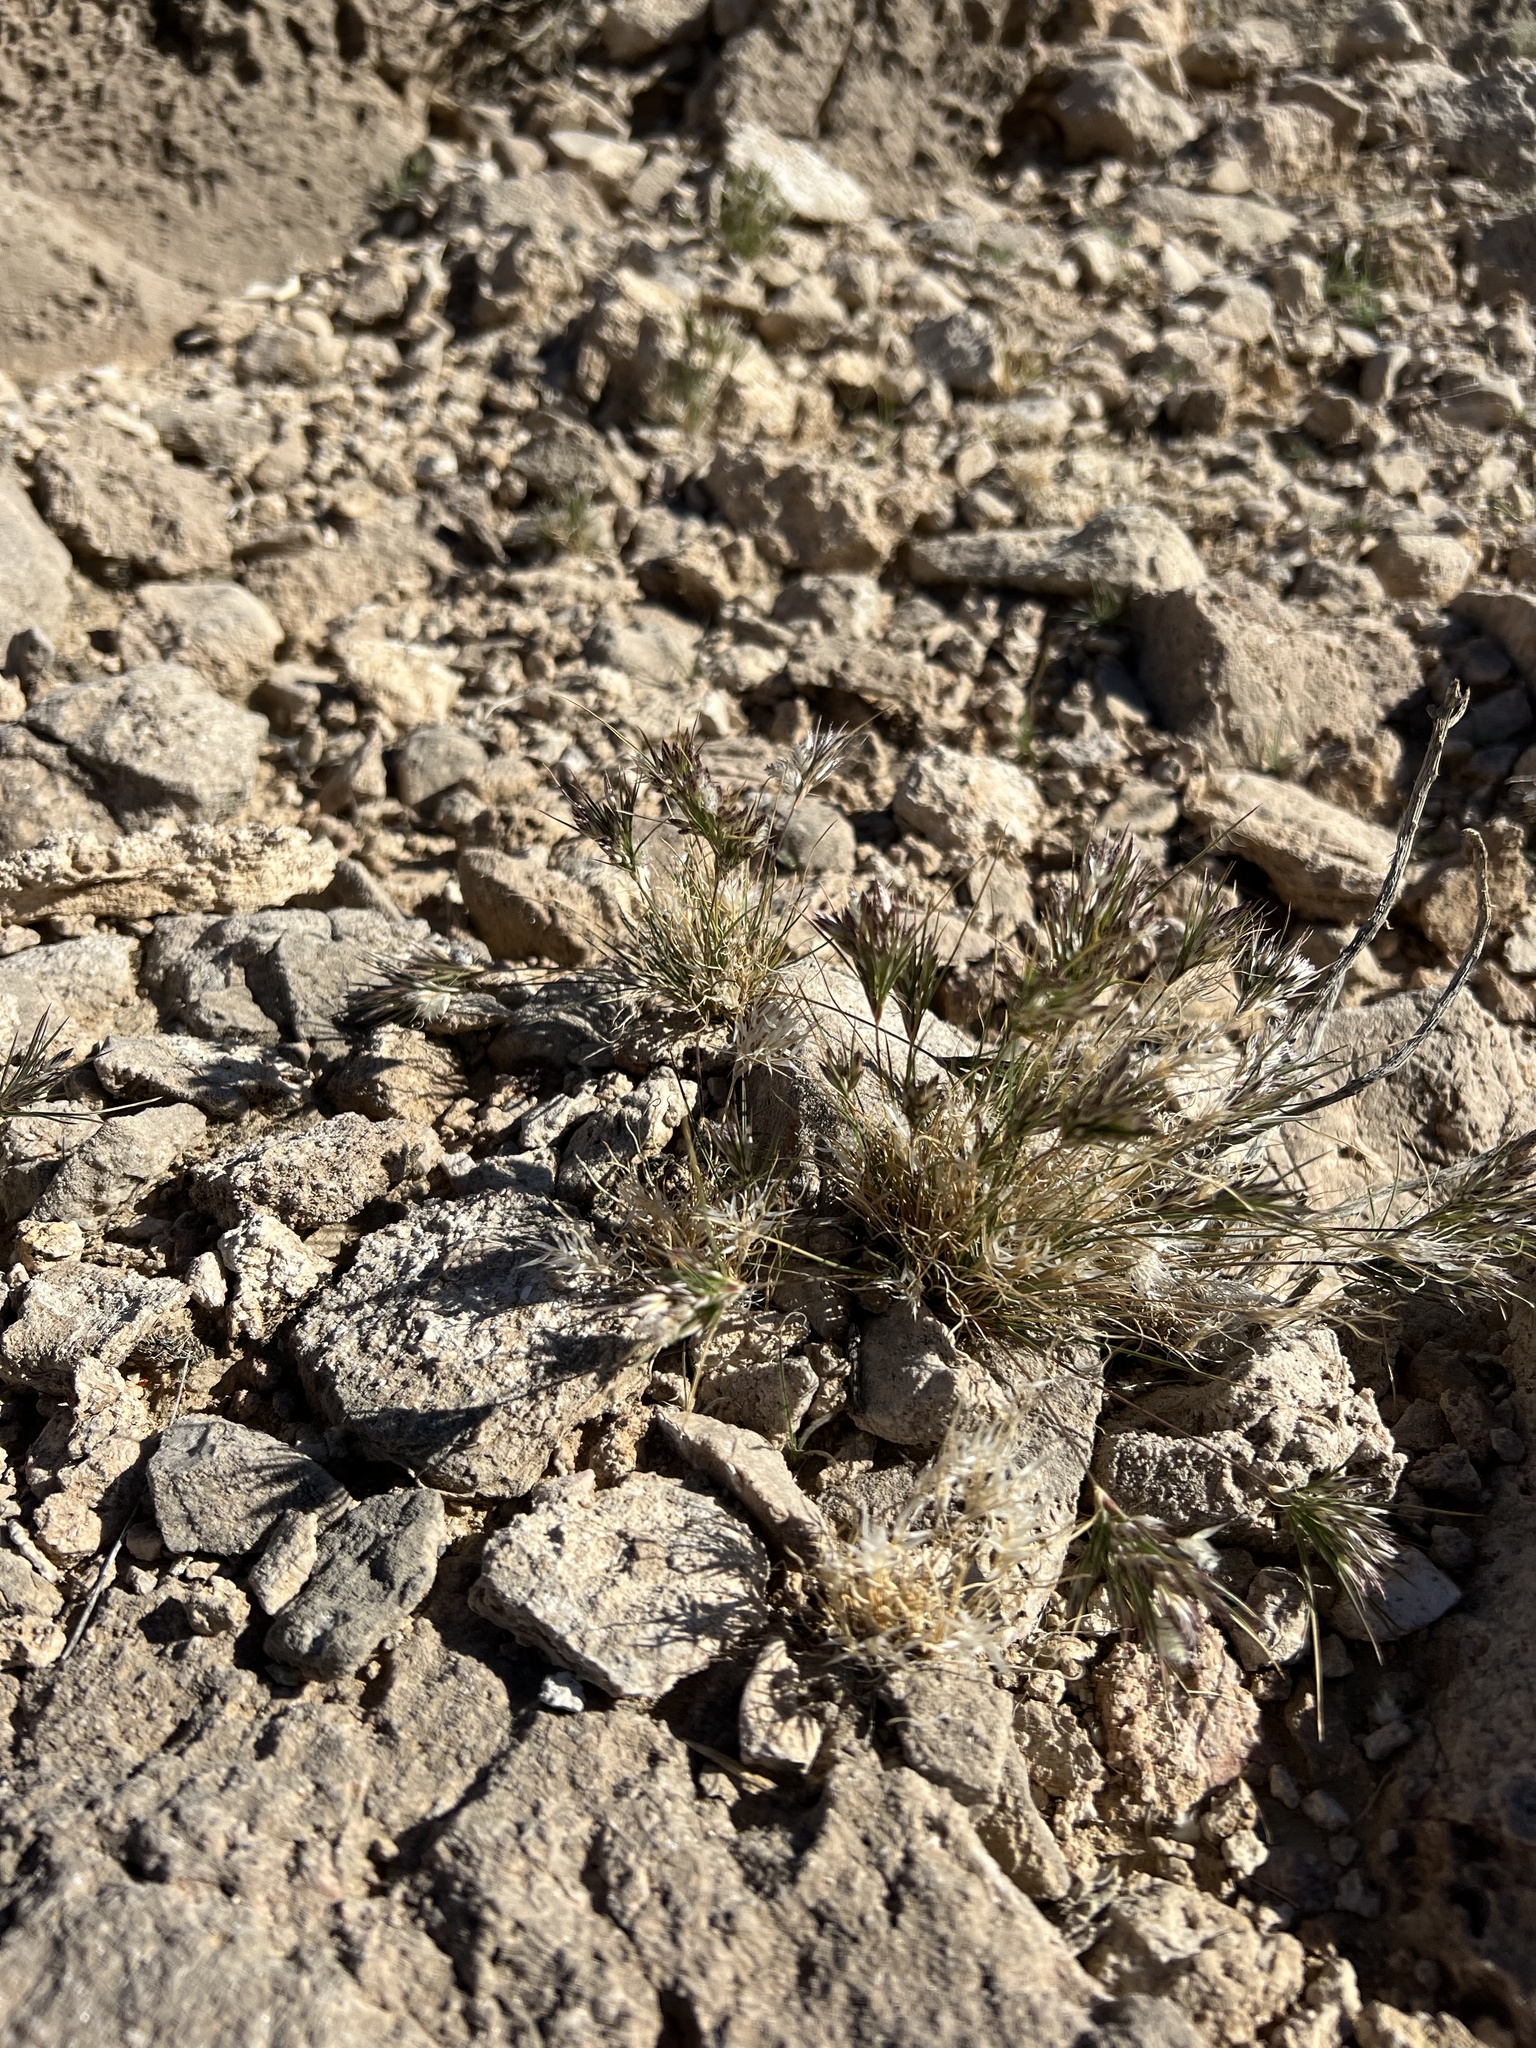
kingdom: Plantae
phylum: Tracheophyta
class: Liliopsida
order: Poales
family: Poaceae
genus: Dasyochloa
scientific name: Dasyochloa pulchella
